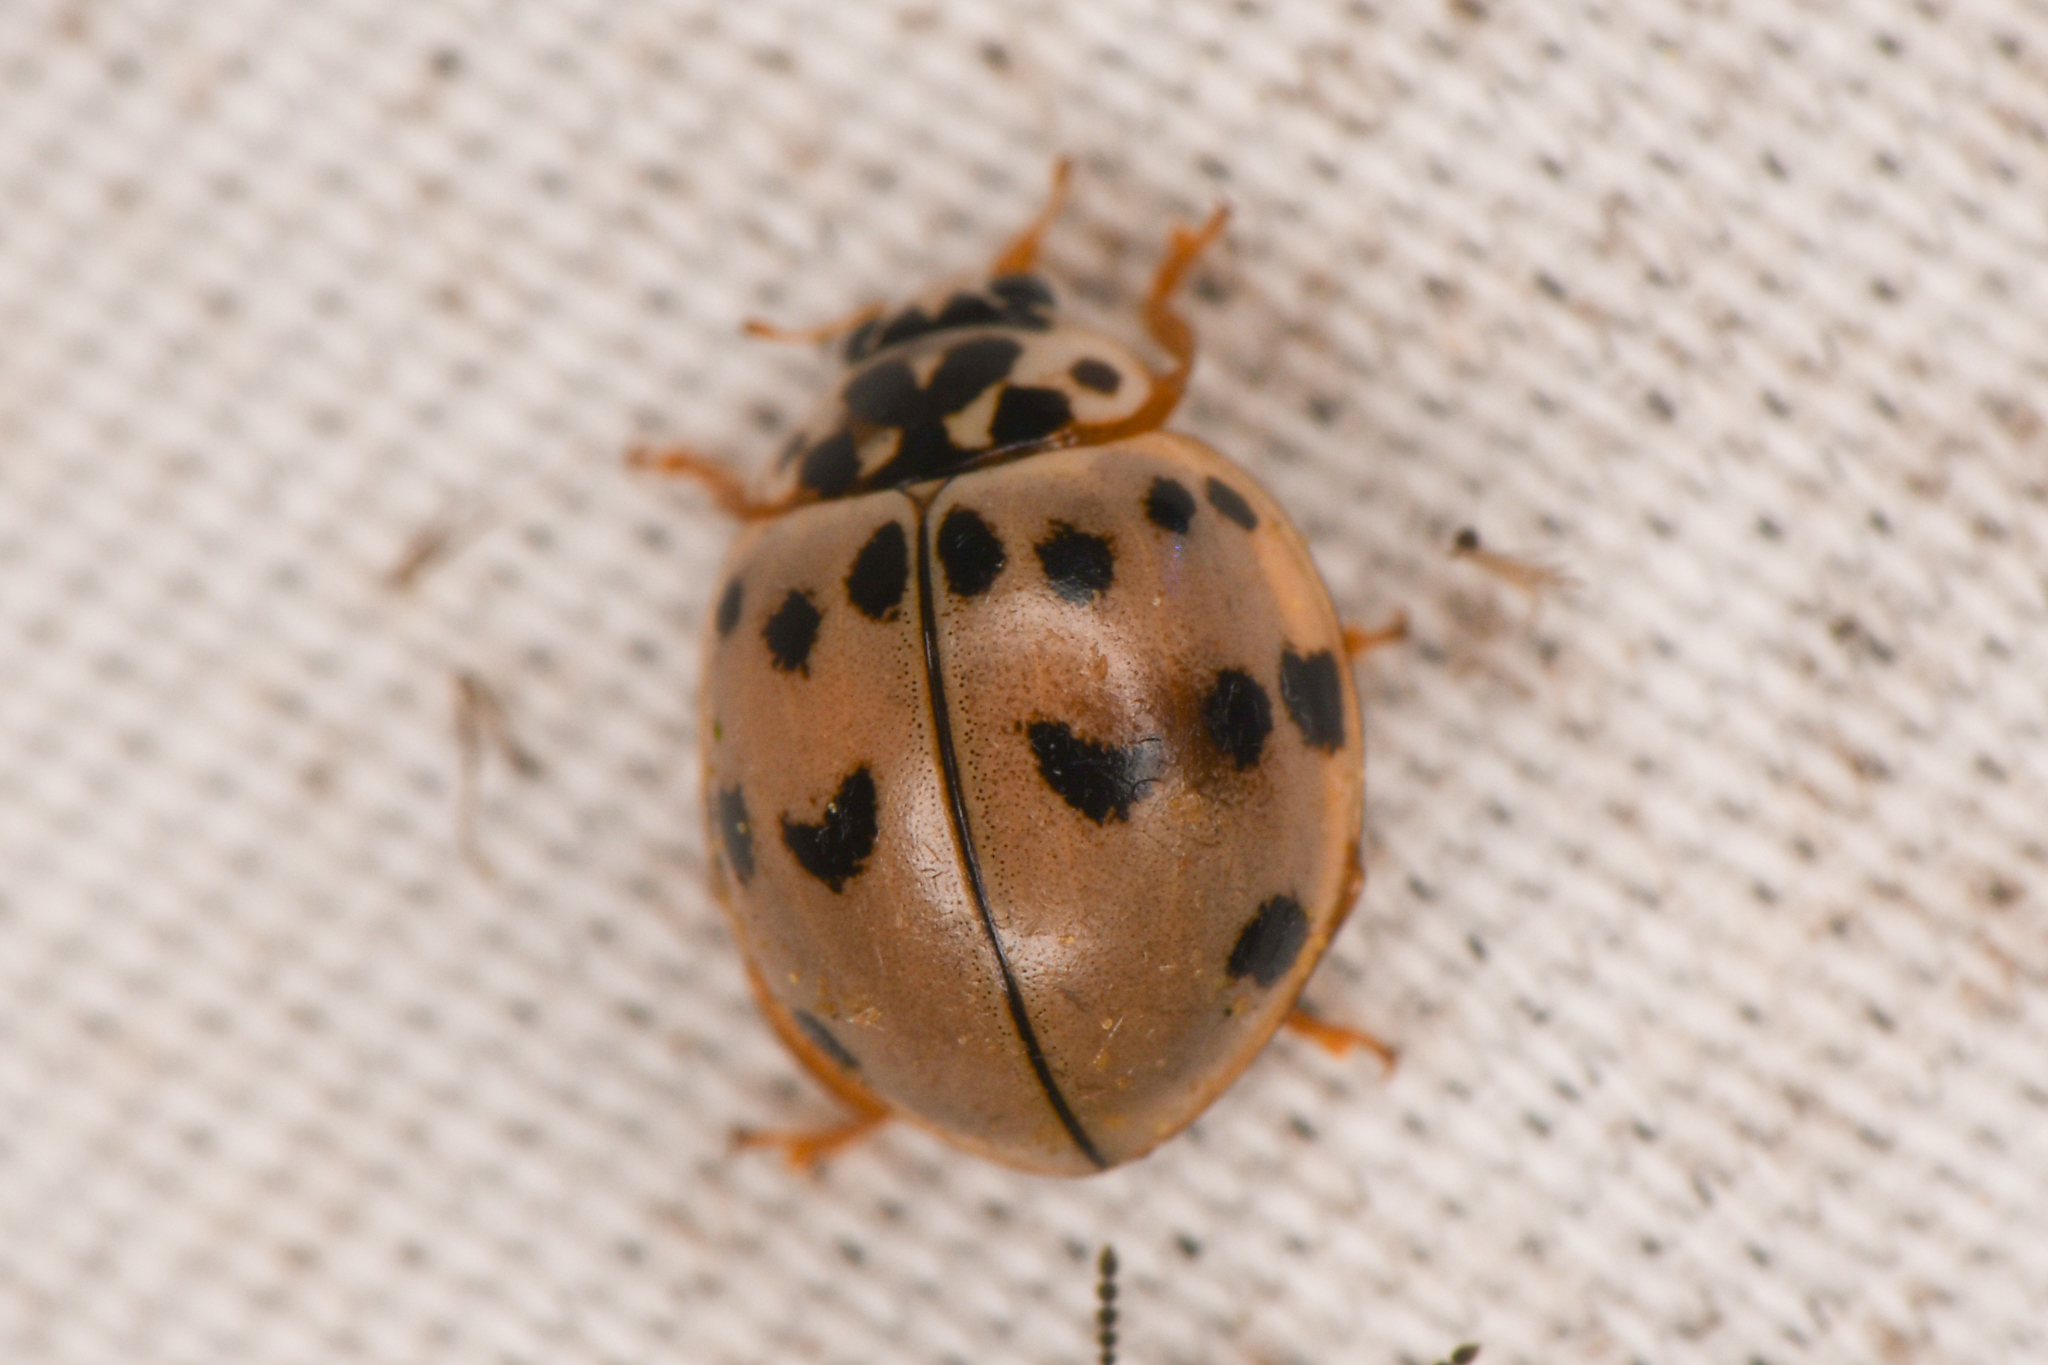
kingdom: Animalia
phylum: Arthropoda
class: Insecta
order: Coleoptera
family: Coccinellidae
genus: Olla
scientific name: Olla v-nigrum
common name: Ashy gray lady beetle
